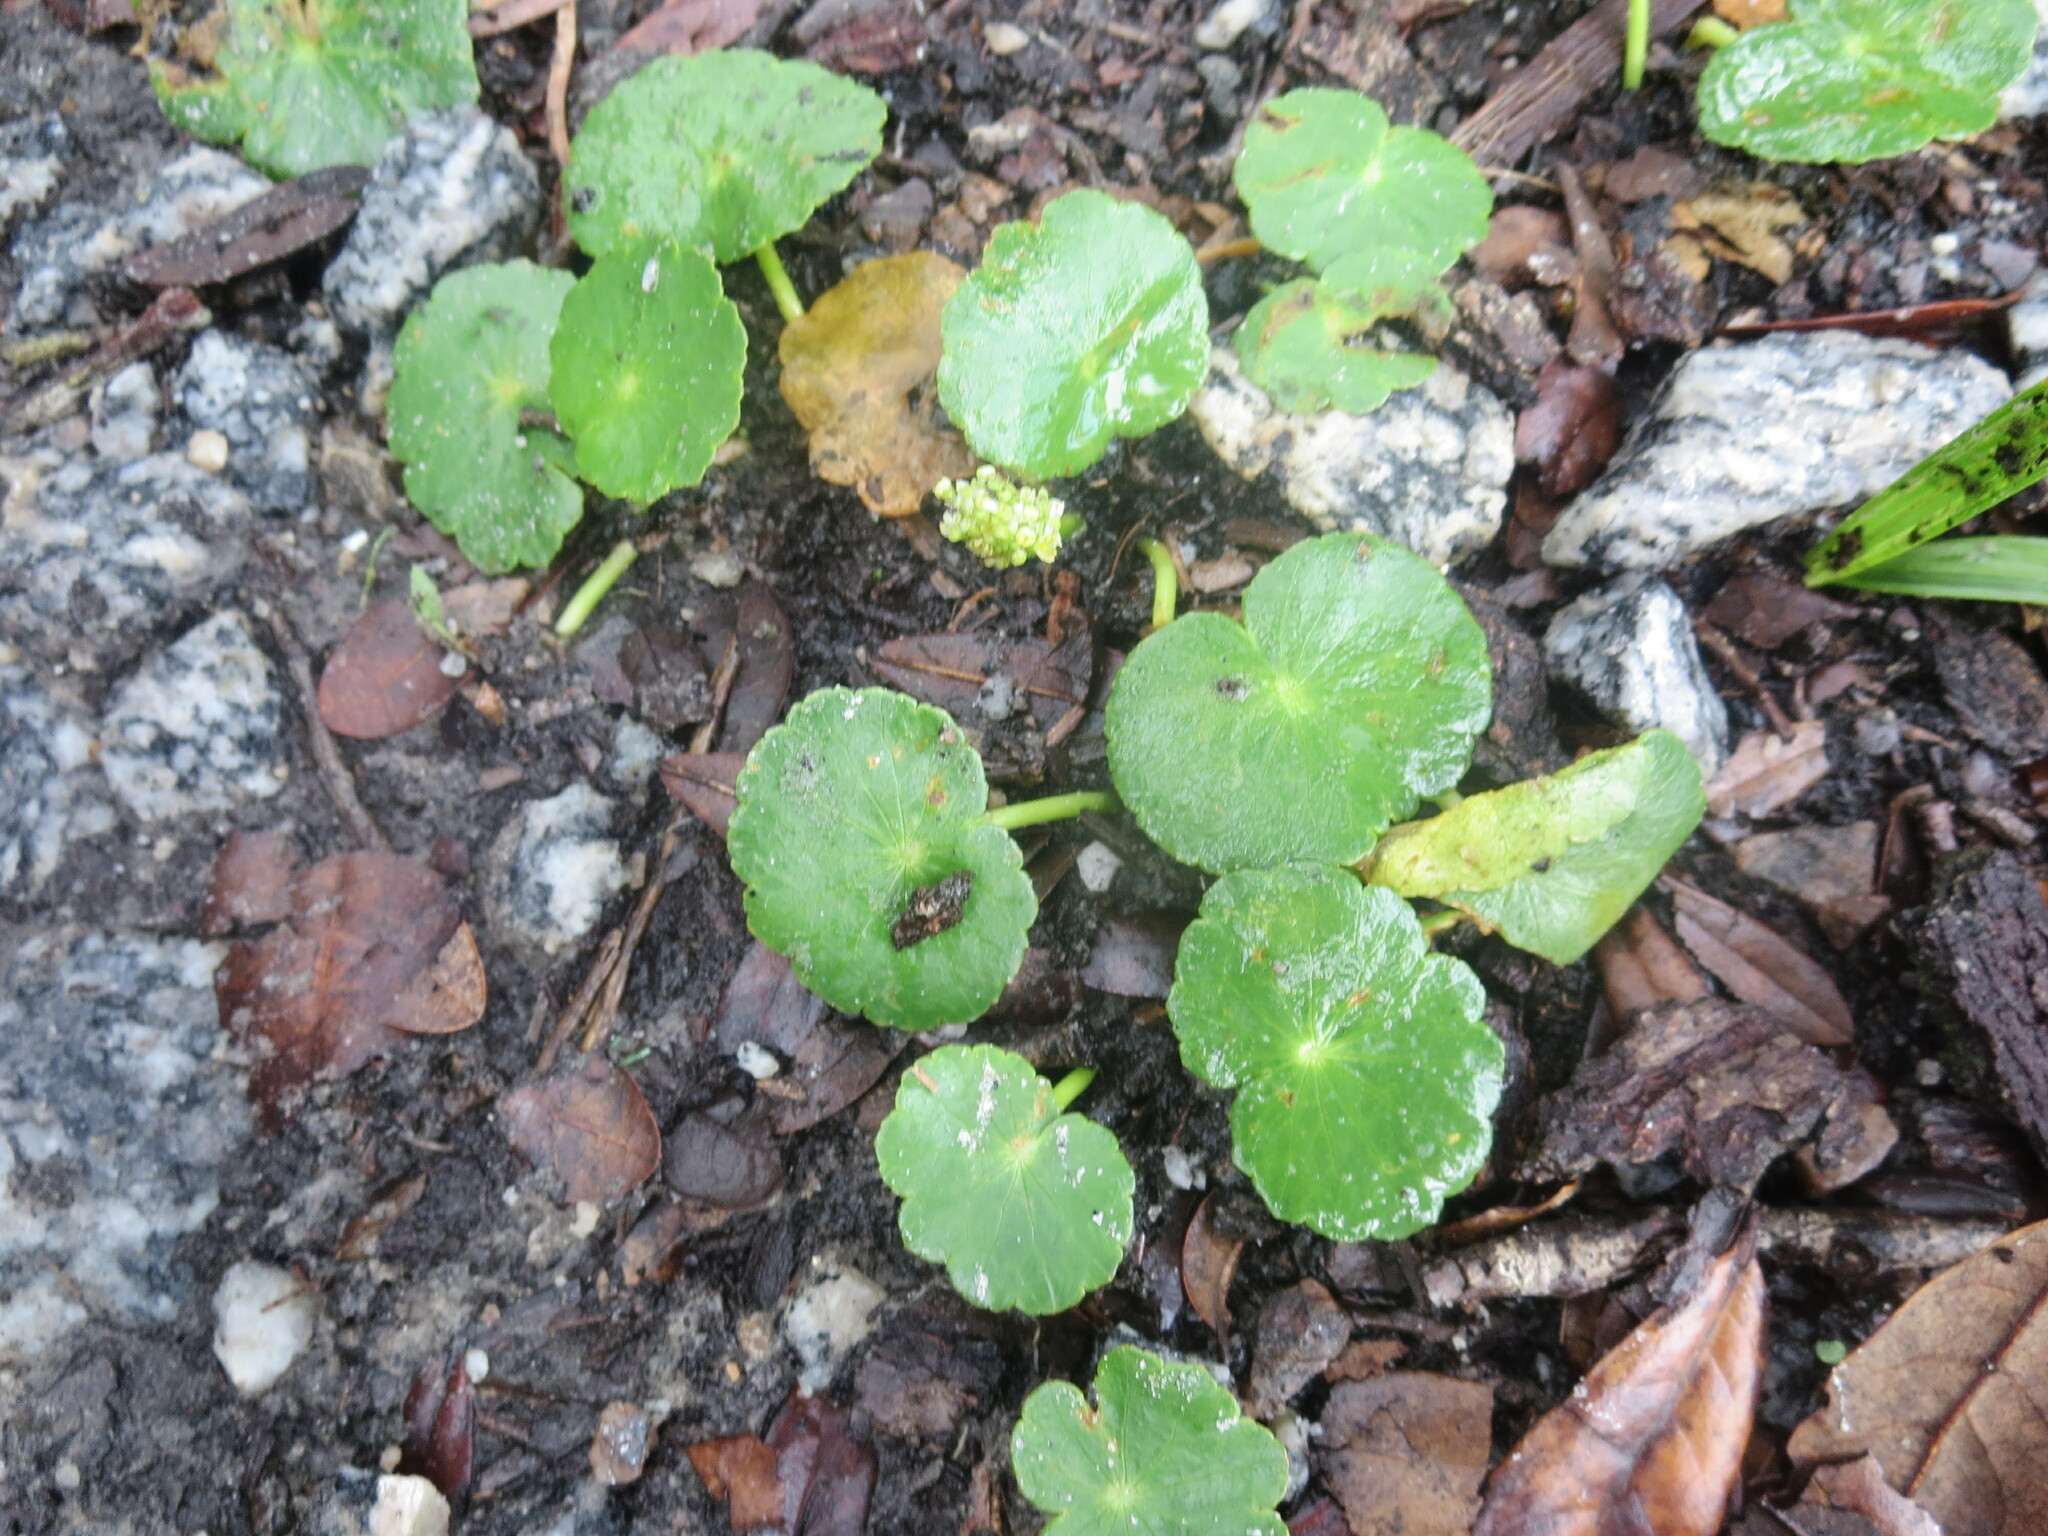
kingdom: Plantae
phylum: Tracheophyta
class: Magnoliopsida
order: Apiales
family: Araliaceae
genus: Hydrocotyle
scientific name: Hydrocotyle bonariensis
